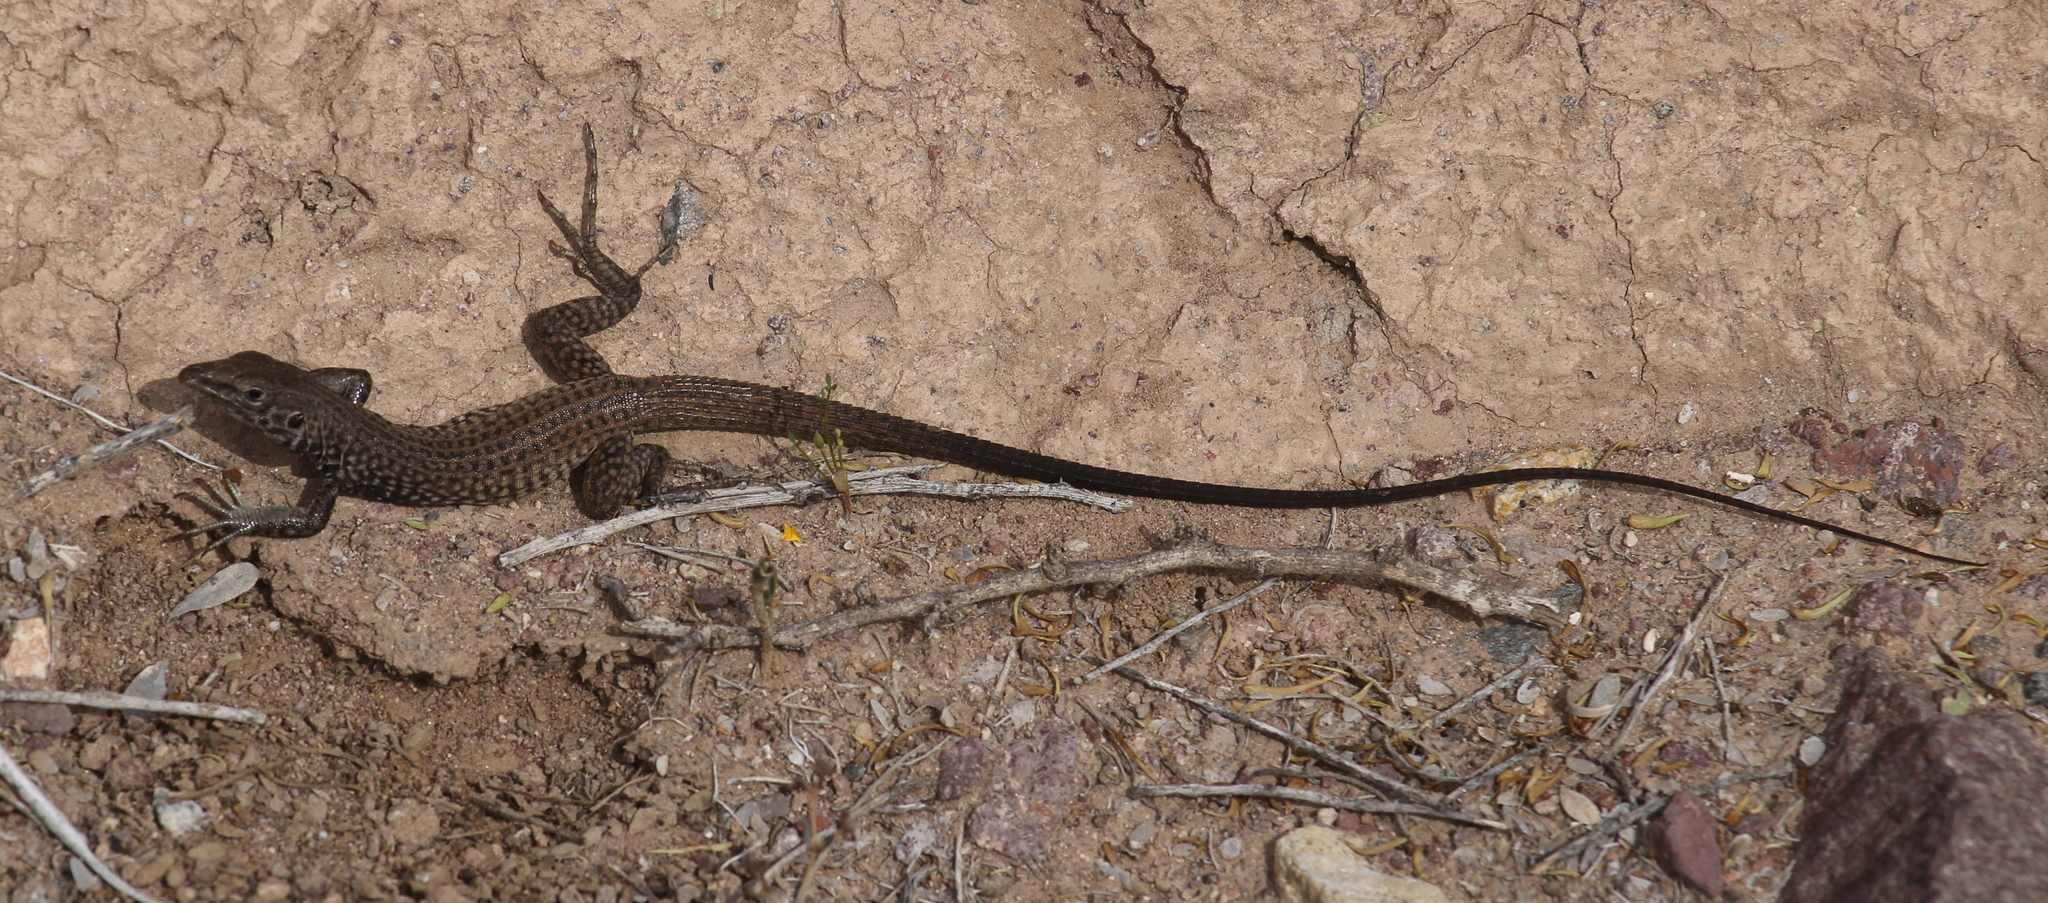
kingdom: Animalia
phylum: Chordata
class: Squamata
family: Teiidae
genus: Aspidoscelis
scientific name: Aspidoscelis tigris
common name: Tiger whiptail
